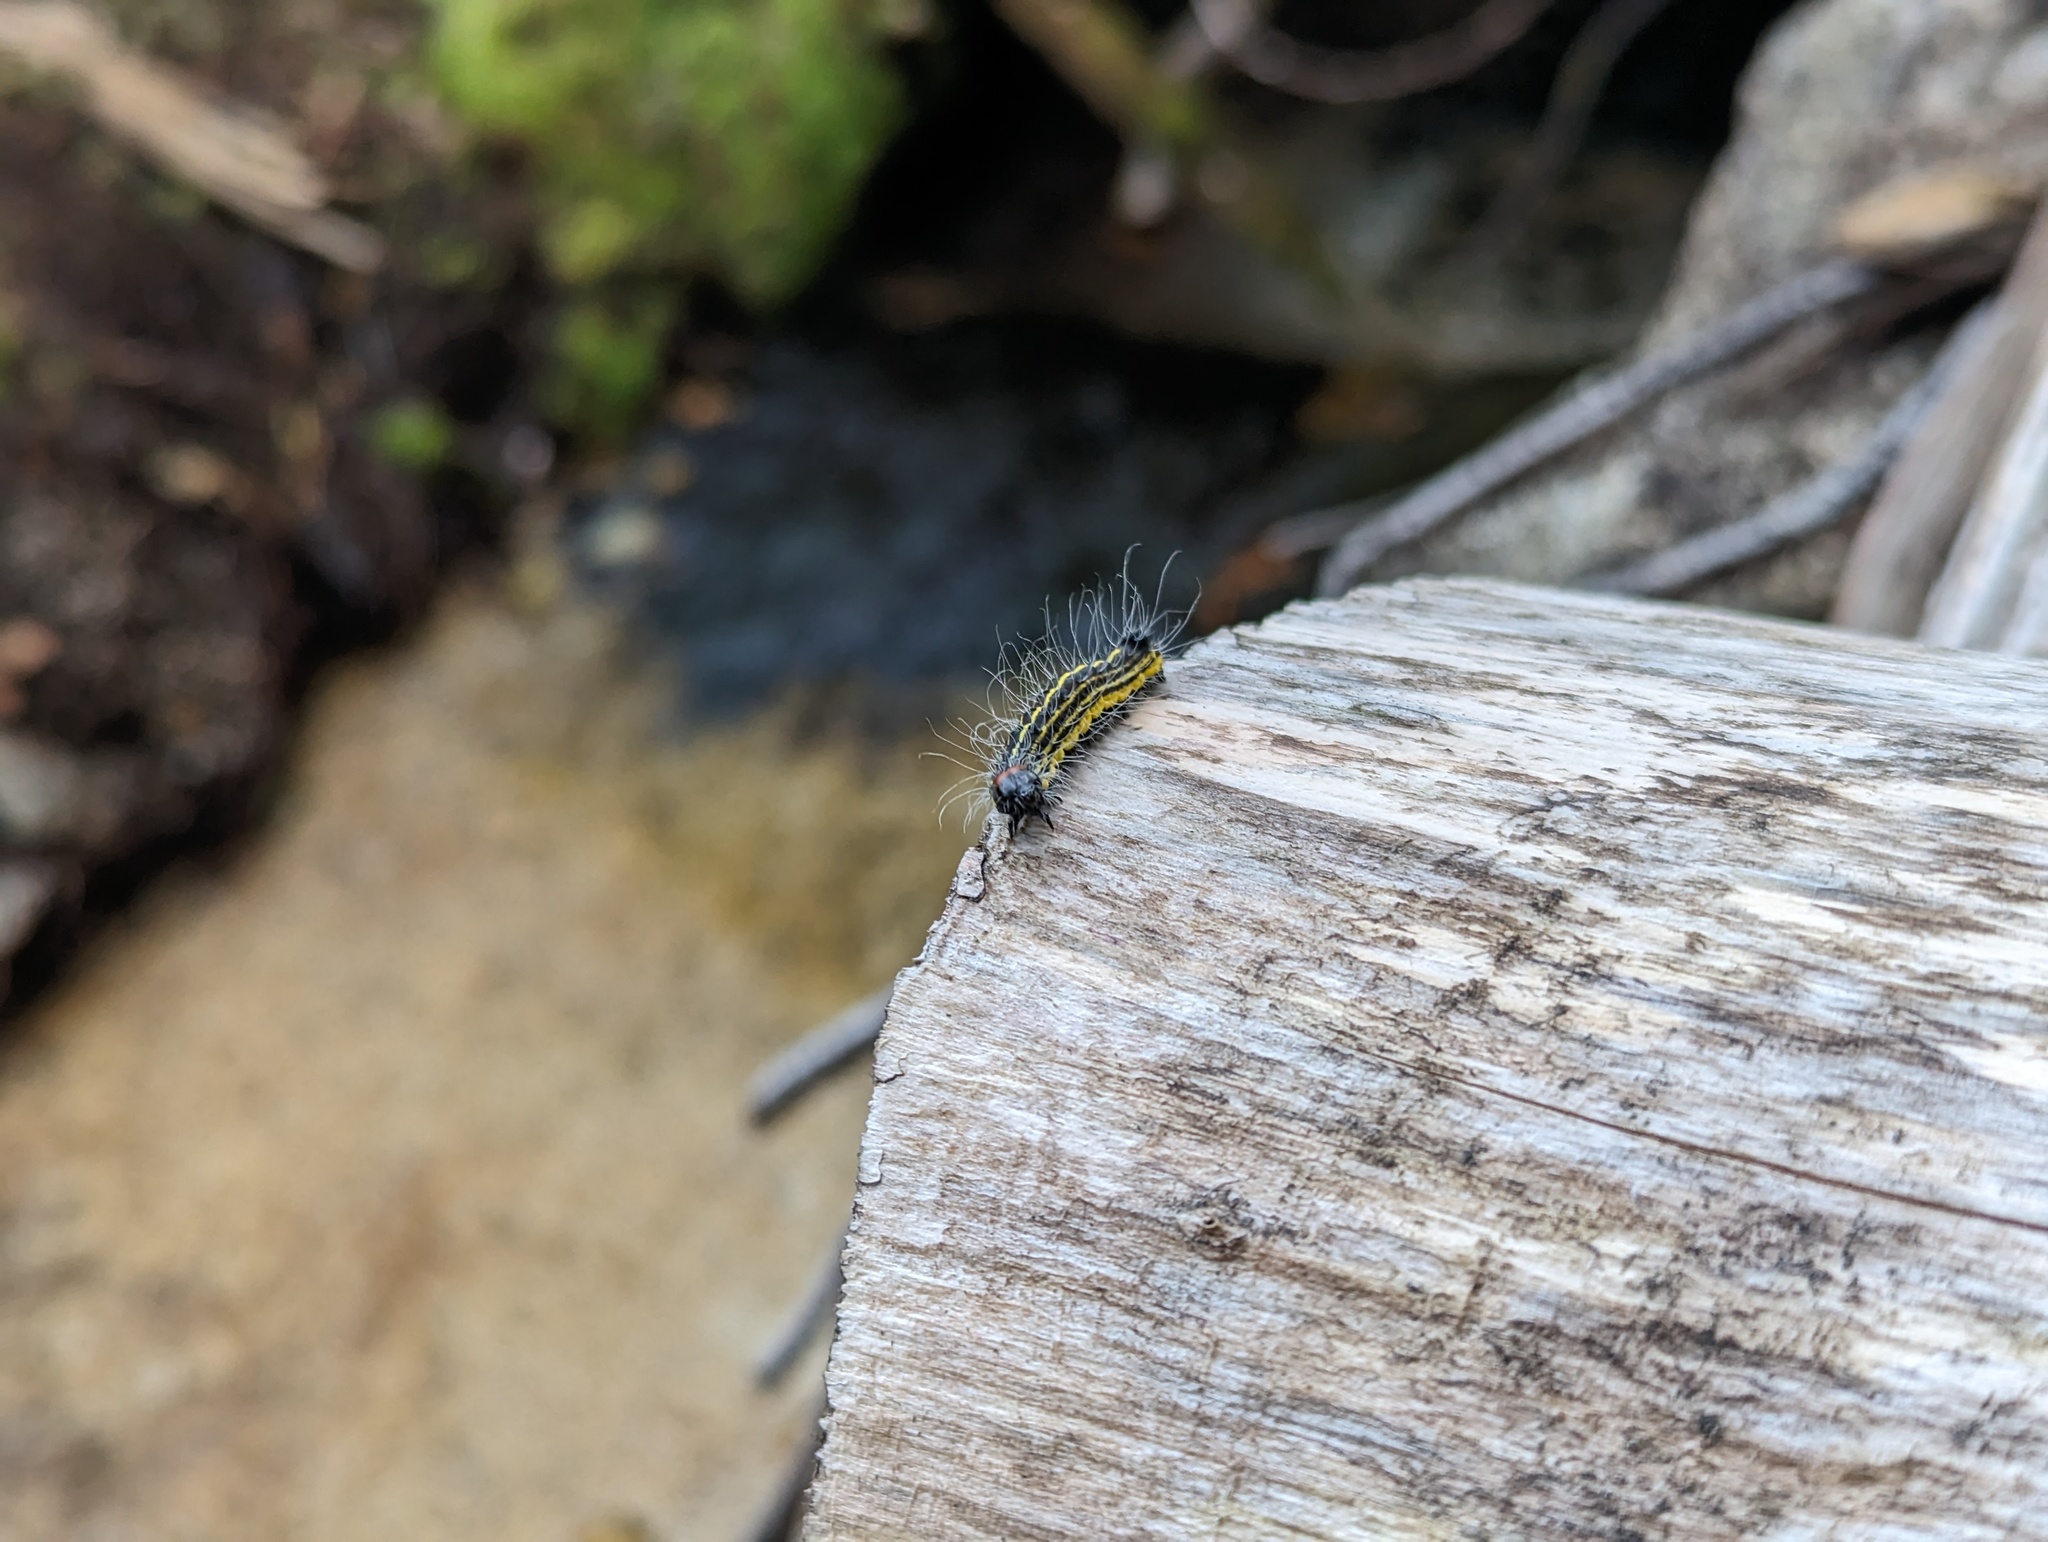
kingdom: Animalia
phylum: Arthropoda
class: Insecta
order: Lepidoptera
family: Noctuidae
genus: Acronicta
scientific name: Acronicta radcliffei
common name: Radcliffe's dagger
